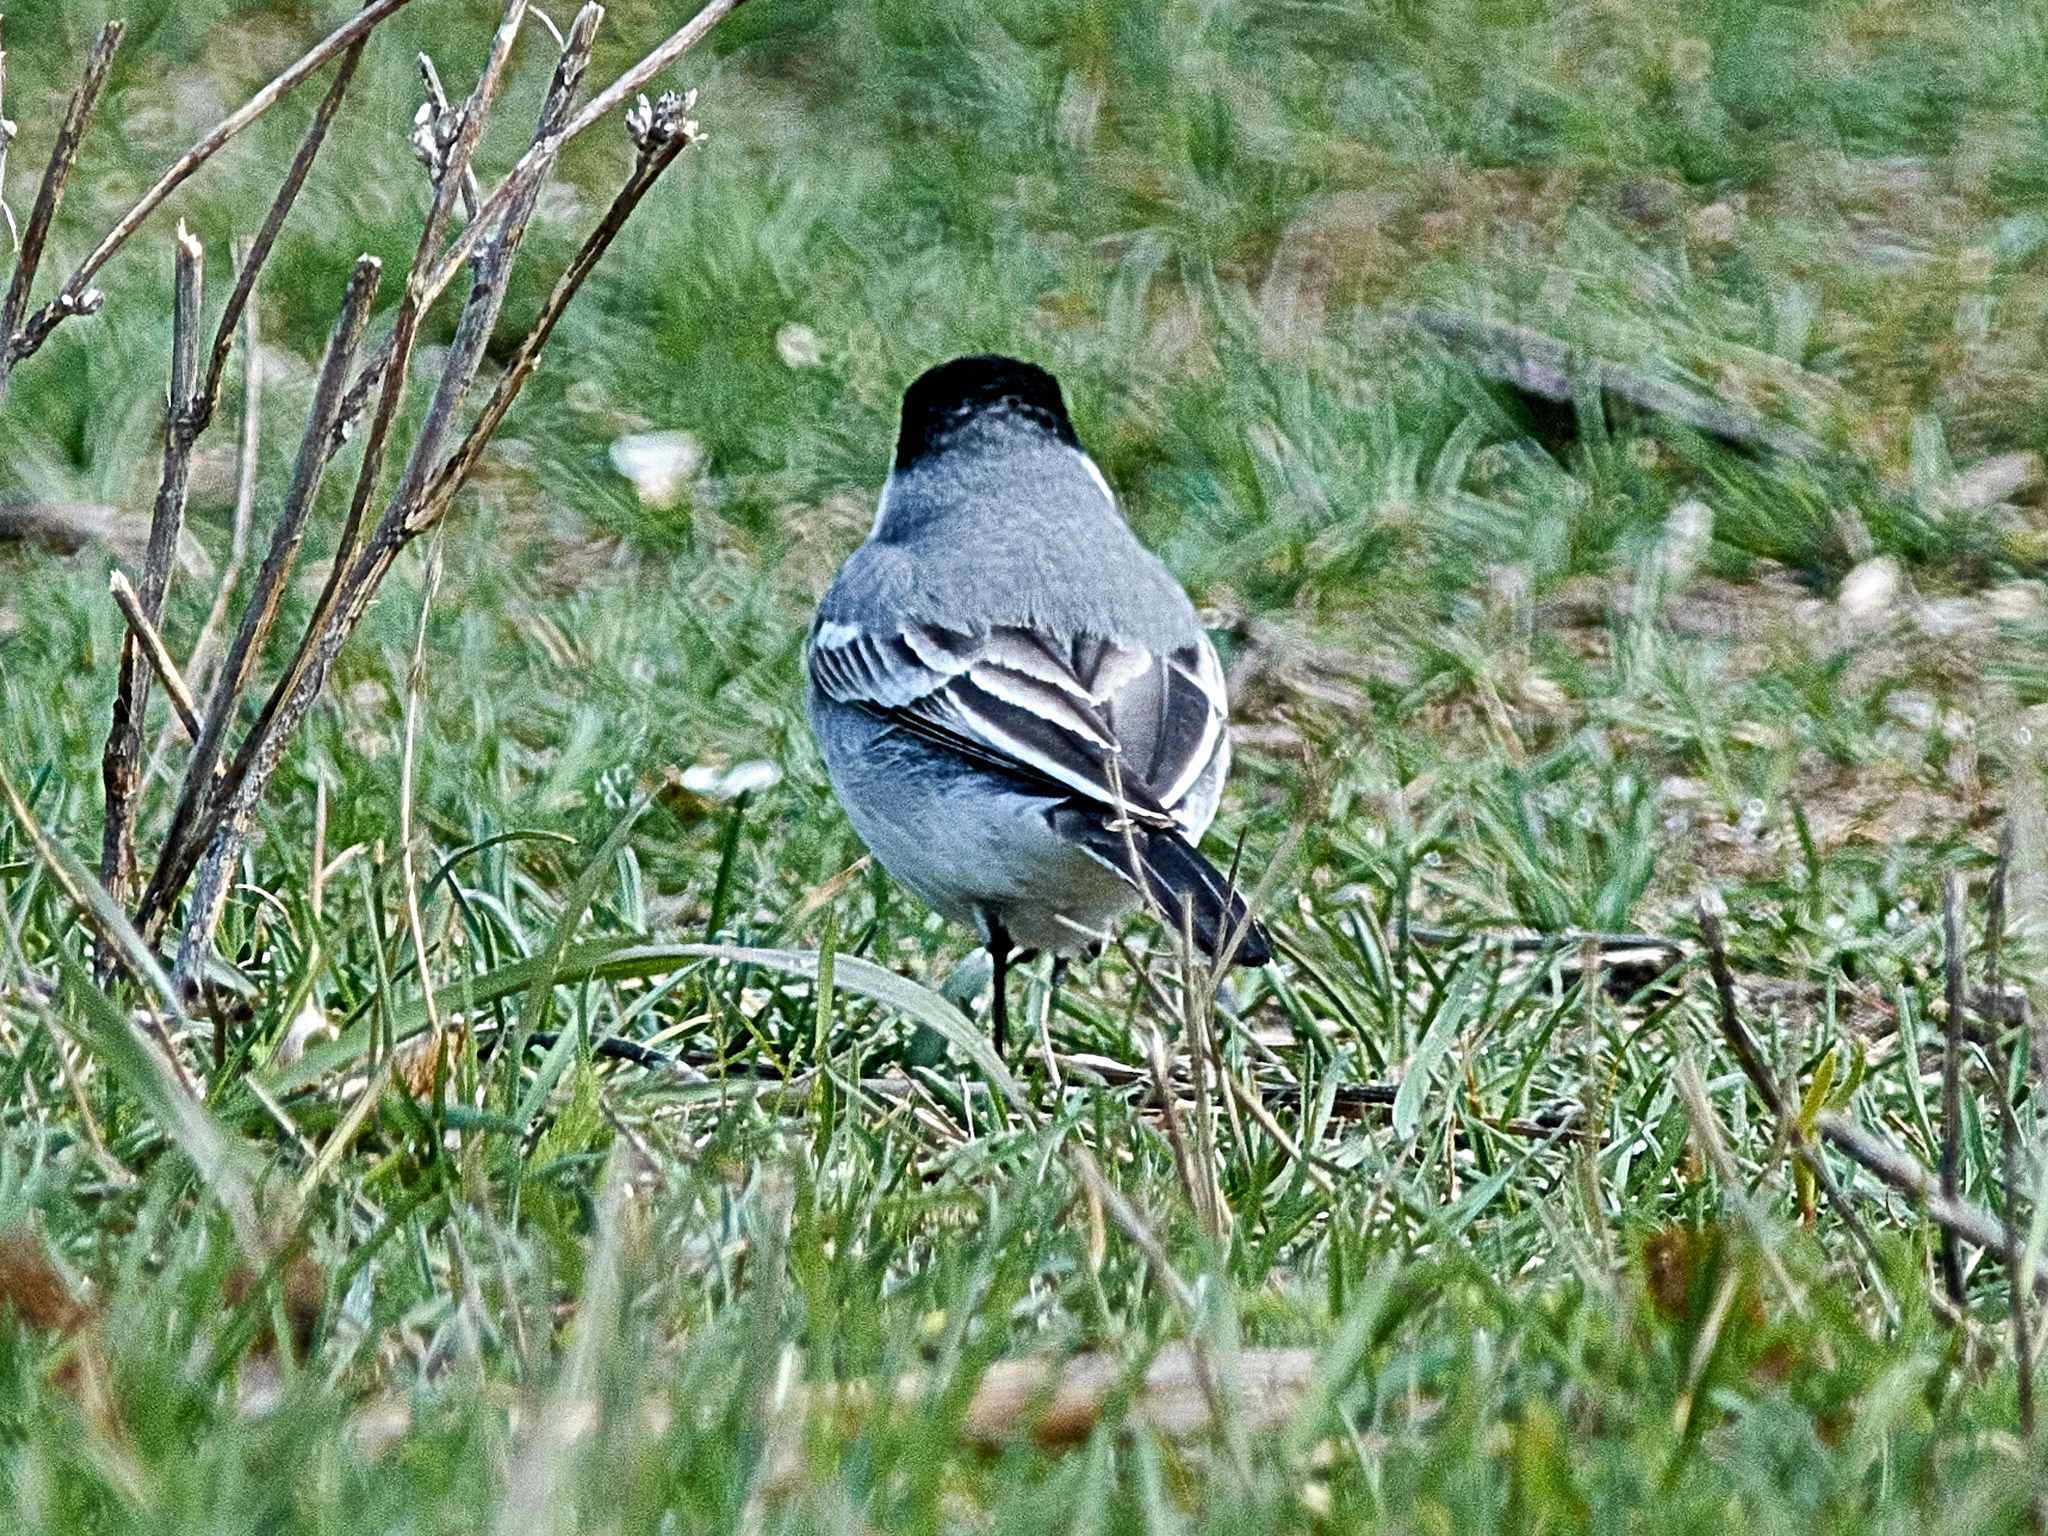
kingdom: Animalia
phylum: Chordata
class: Aves
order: Passeriformes
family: Motacillidae
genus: Motacilla
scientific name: Motacilla alba
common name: White wagtail
